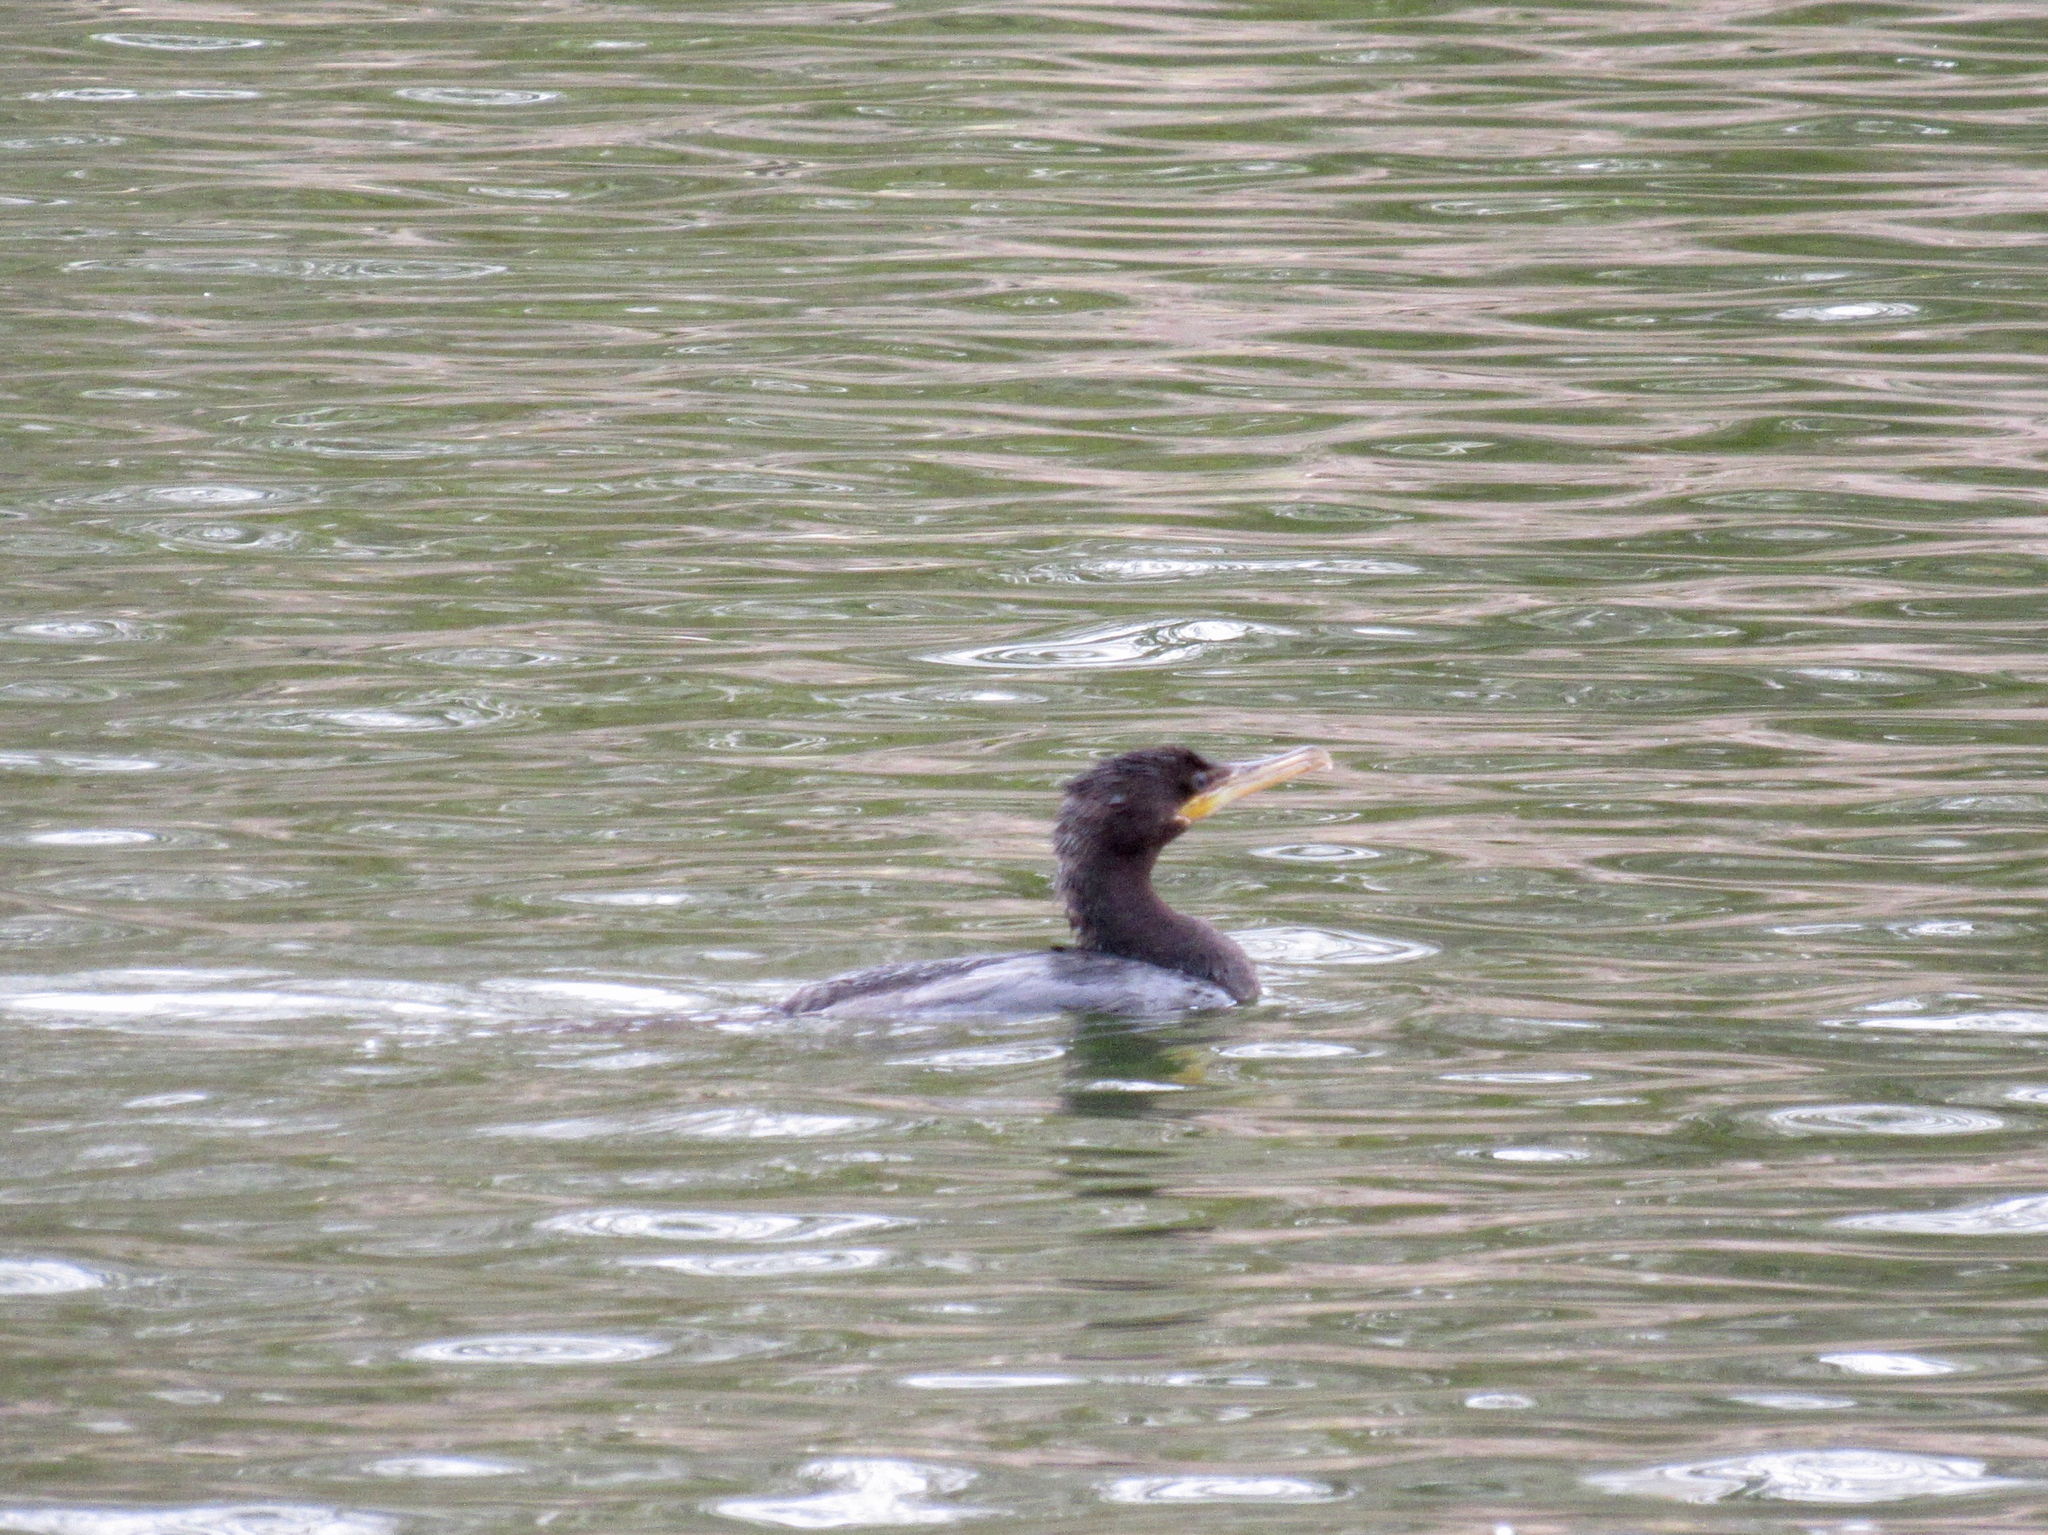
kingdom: Animalia
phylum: Chordata
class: Aves
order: Suliformes
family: Phalacrocoracidae
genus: Phalacrocorax
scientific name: Phalacrocorax brasilianus
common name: Neotropic cormorant
